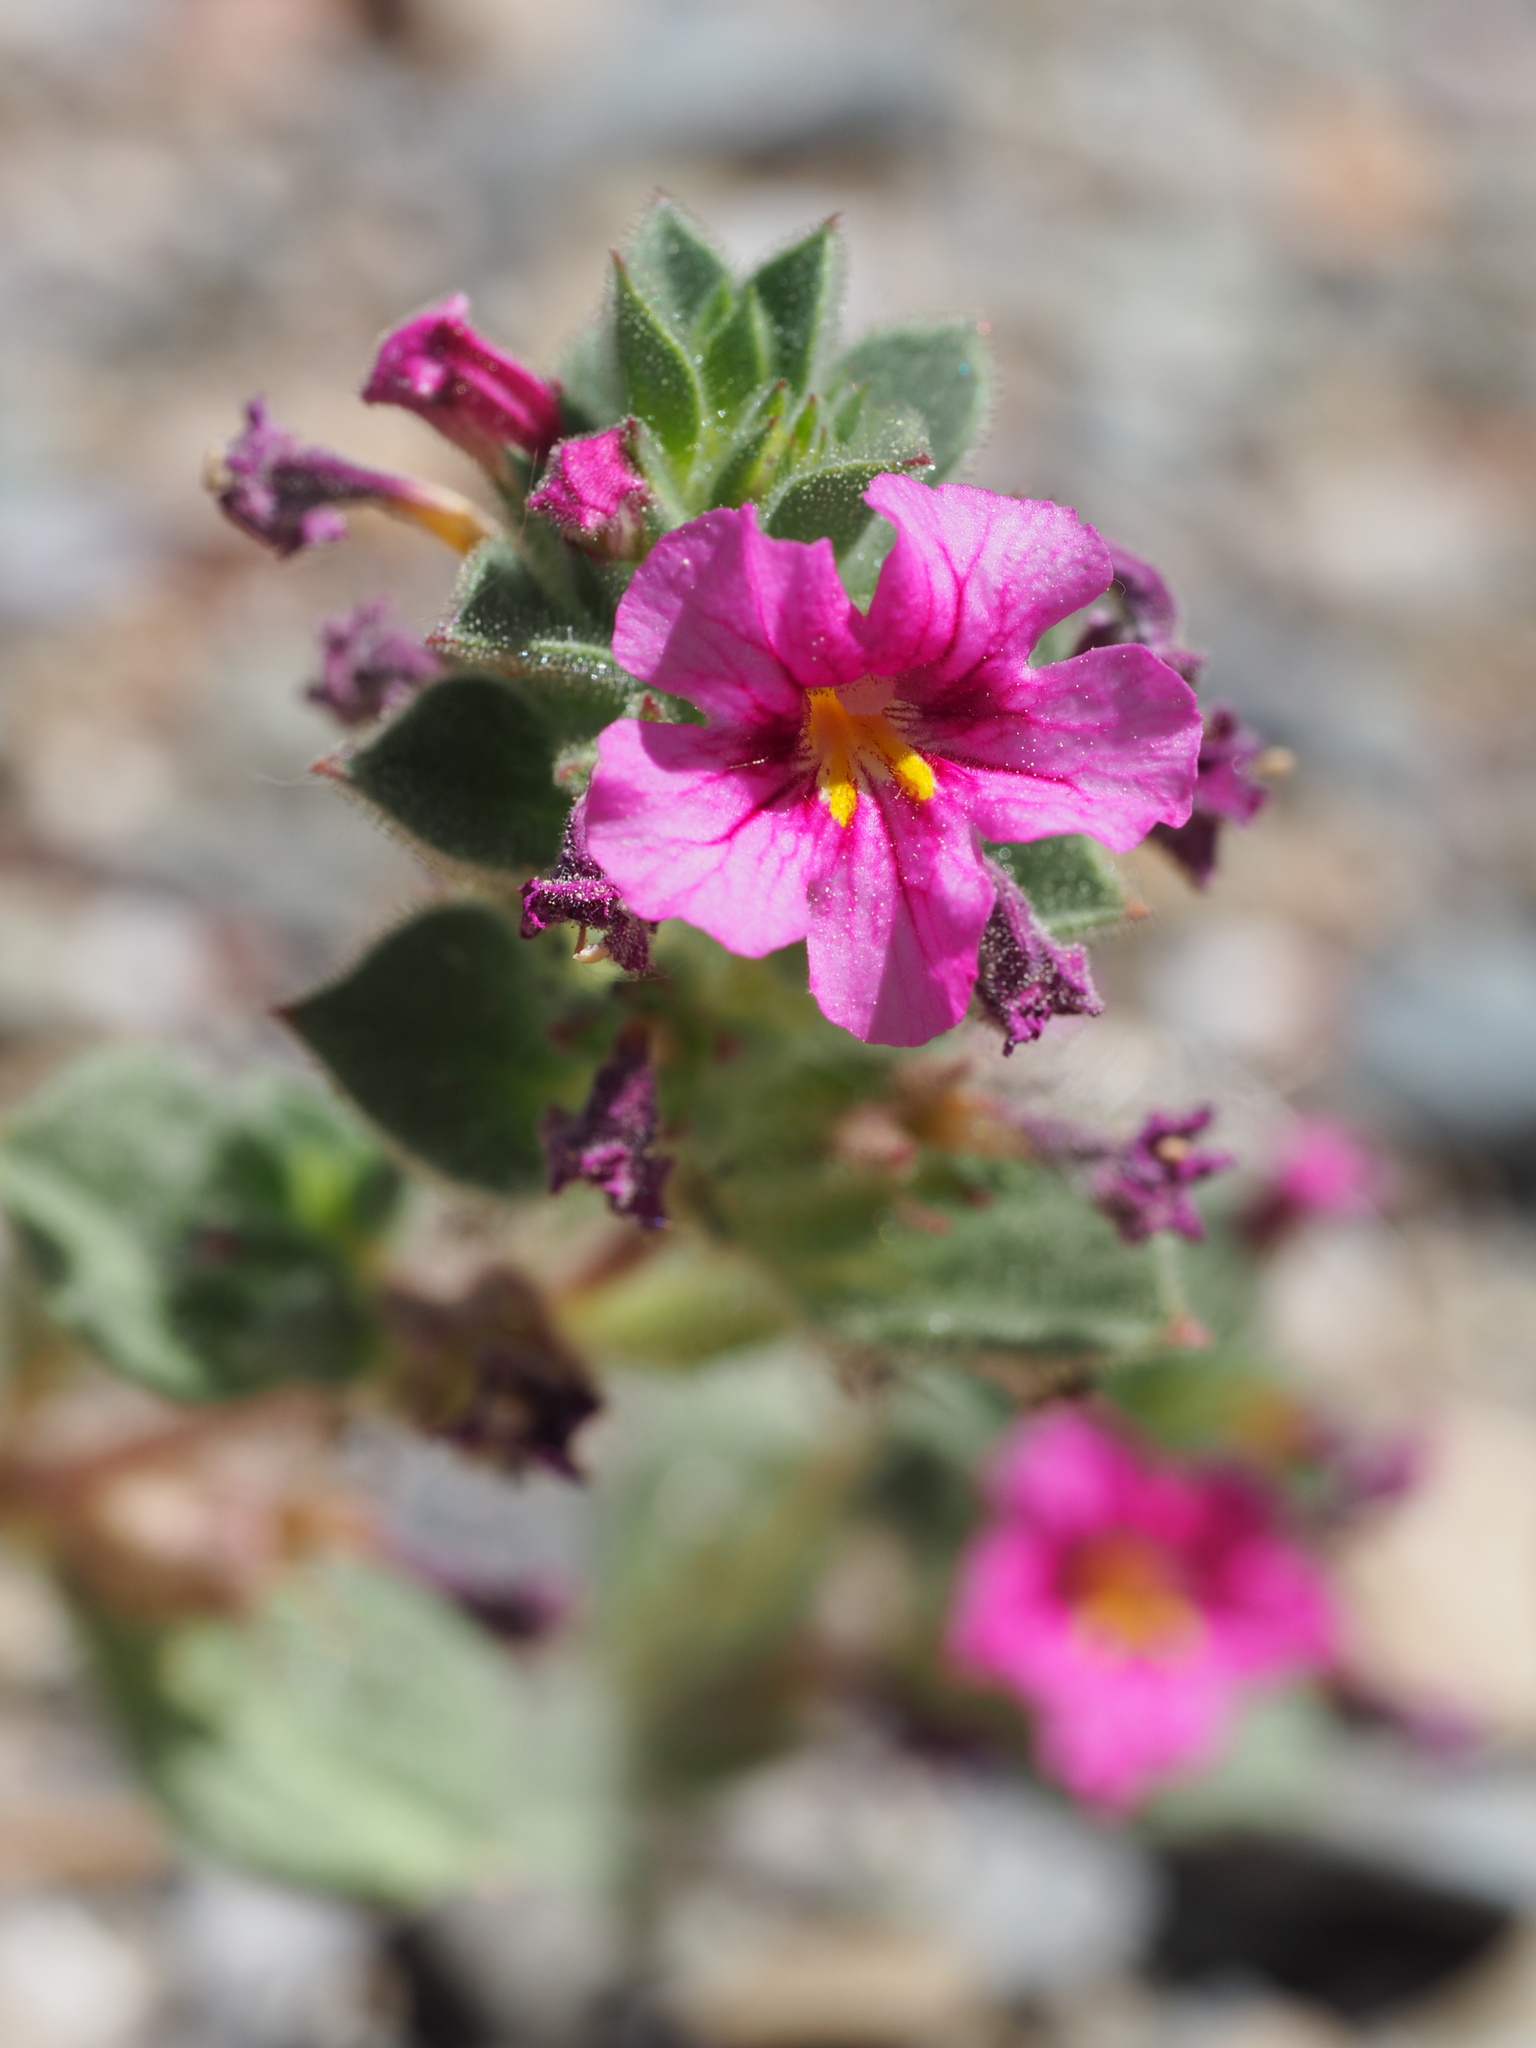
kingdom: Plantae
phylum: Tracheophyta
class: Magnoliopsida
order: Lamiales
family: Phrymaceae
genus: Diplacus
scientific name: Diplacus bigelovii
